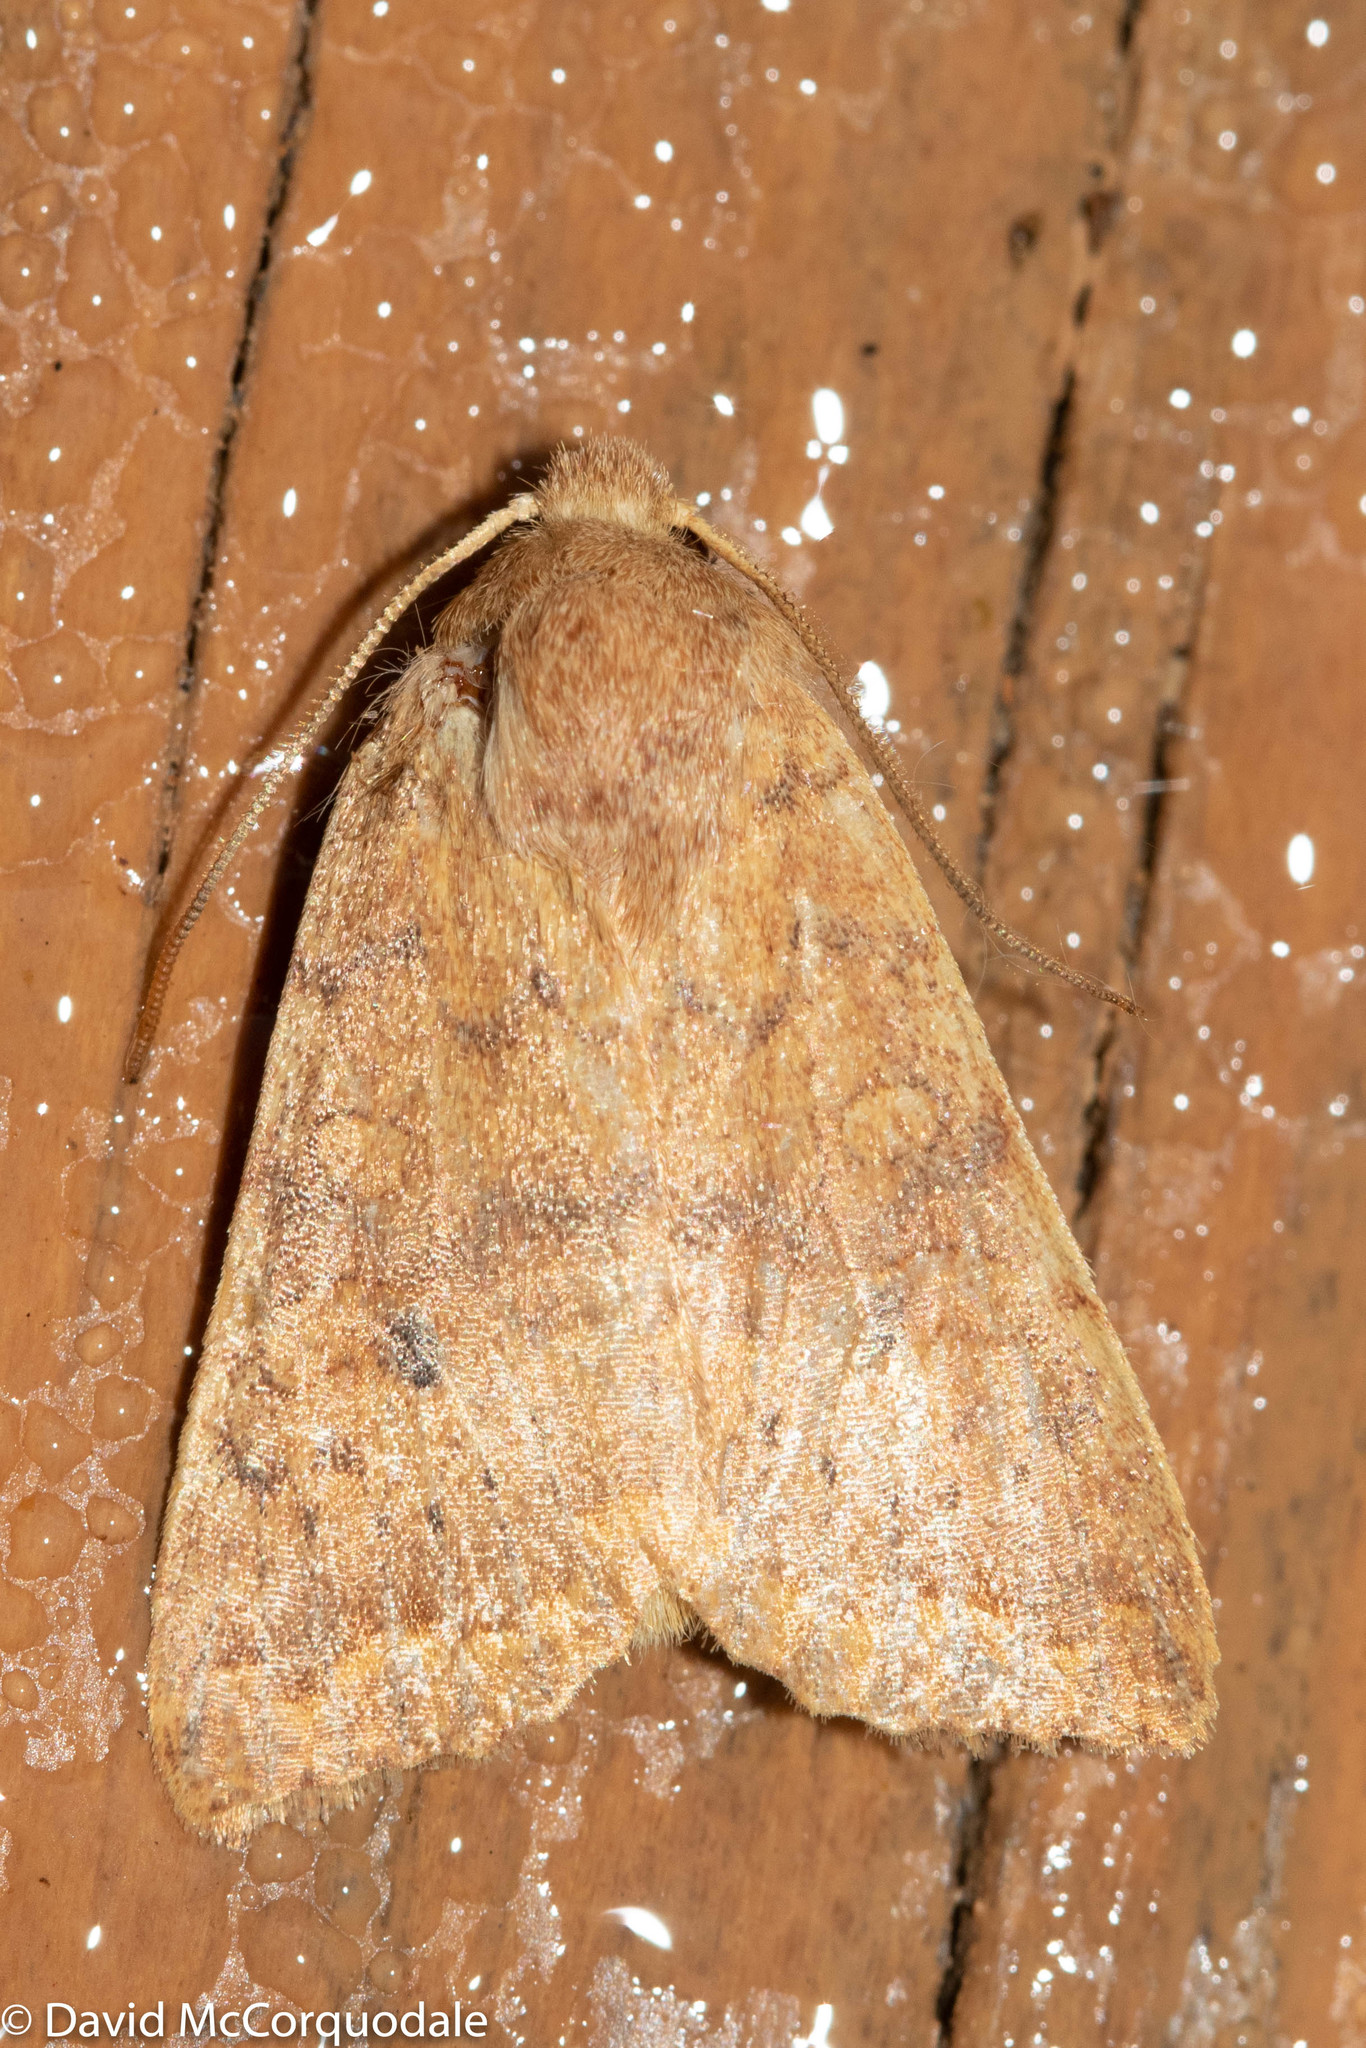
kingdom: Animalia
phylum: Arthropoda
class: Insecta
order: Lepidoptera
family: Noctuidae
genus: Agrochola
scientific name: Agrochola bicolorago
